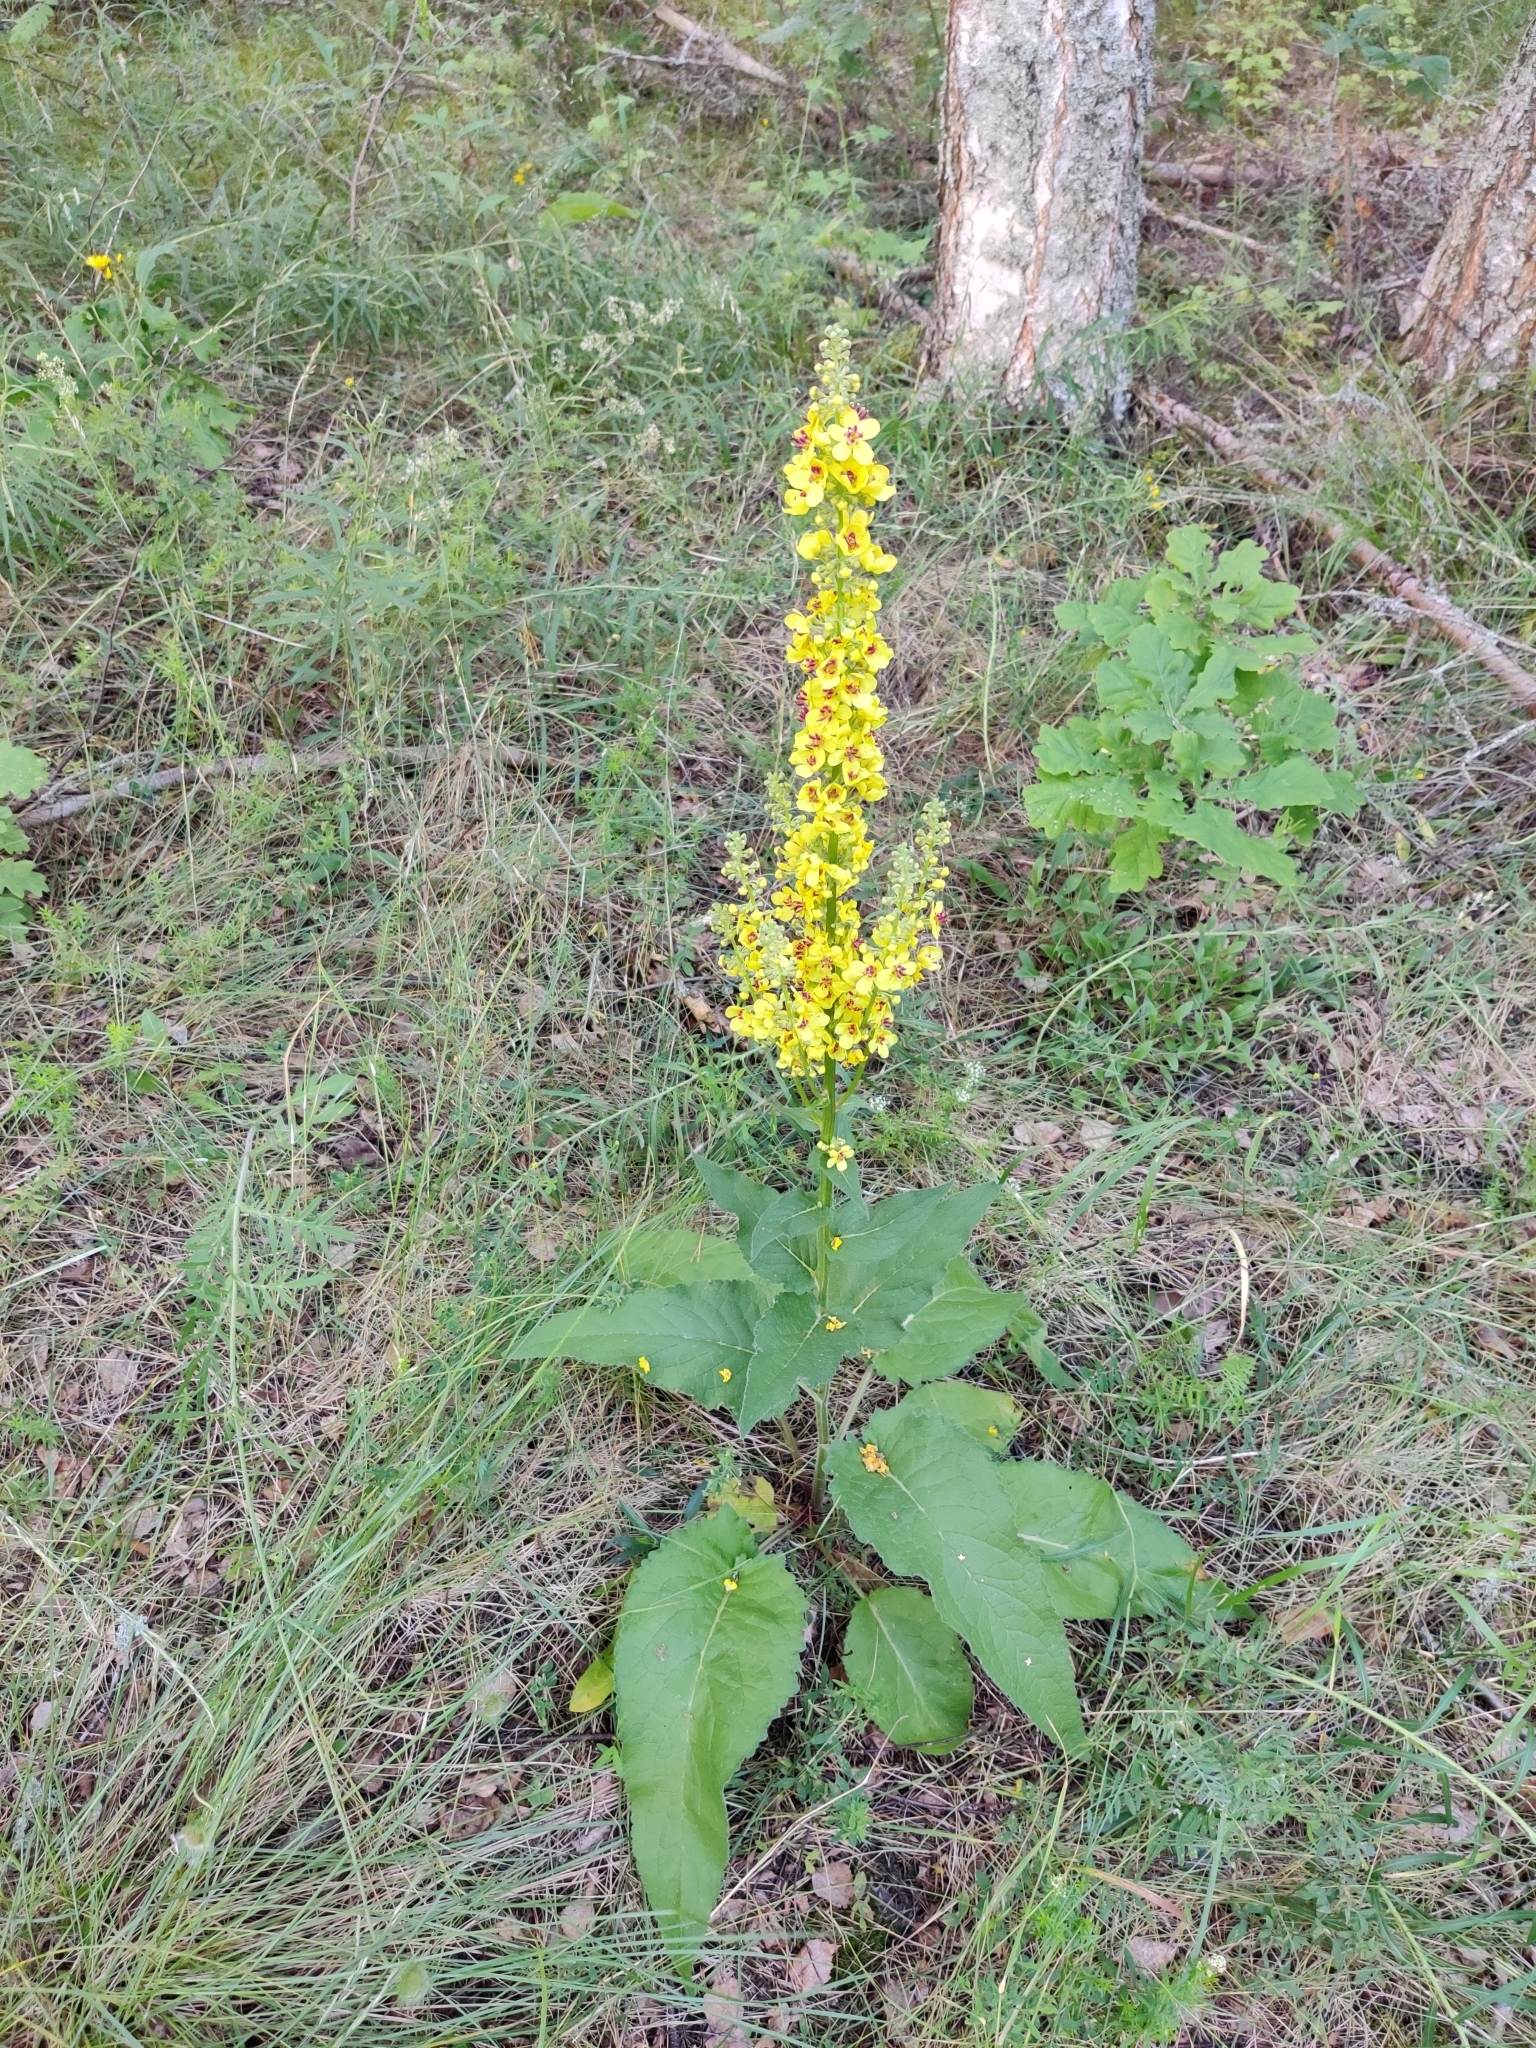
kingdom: Plantae
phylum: Tracheophyta
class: Magnoliopsida
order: Lamiales
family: Scrophulariaceae
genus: Verbascum
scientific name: Verbascum nigrum
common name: Dark mullein
